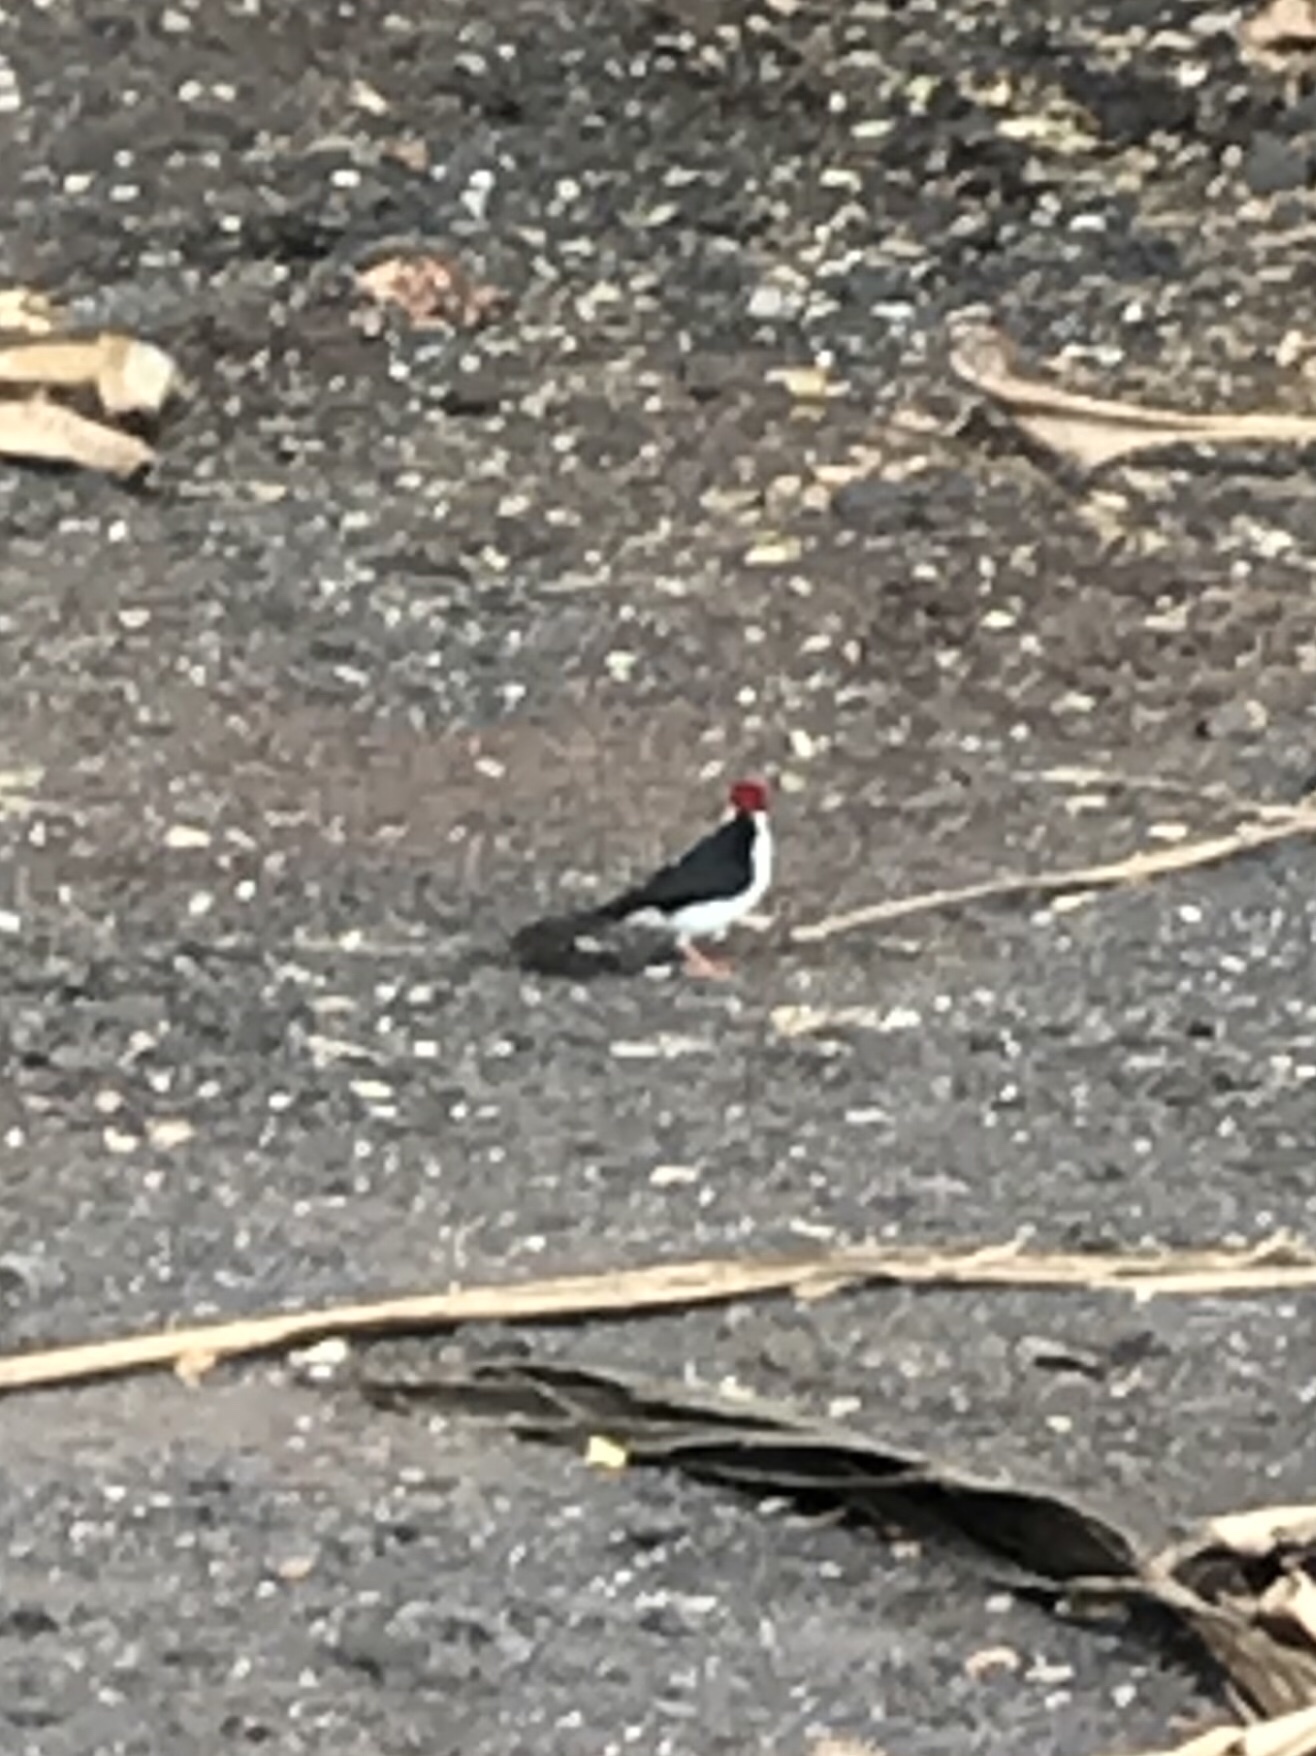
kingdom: Animalia
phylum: Chordata
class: Aves
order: Passeriformes
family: Thraupidae
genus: Paroaria
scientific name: Paroaria capitata
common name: Yellow-billed cardinal
